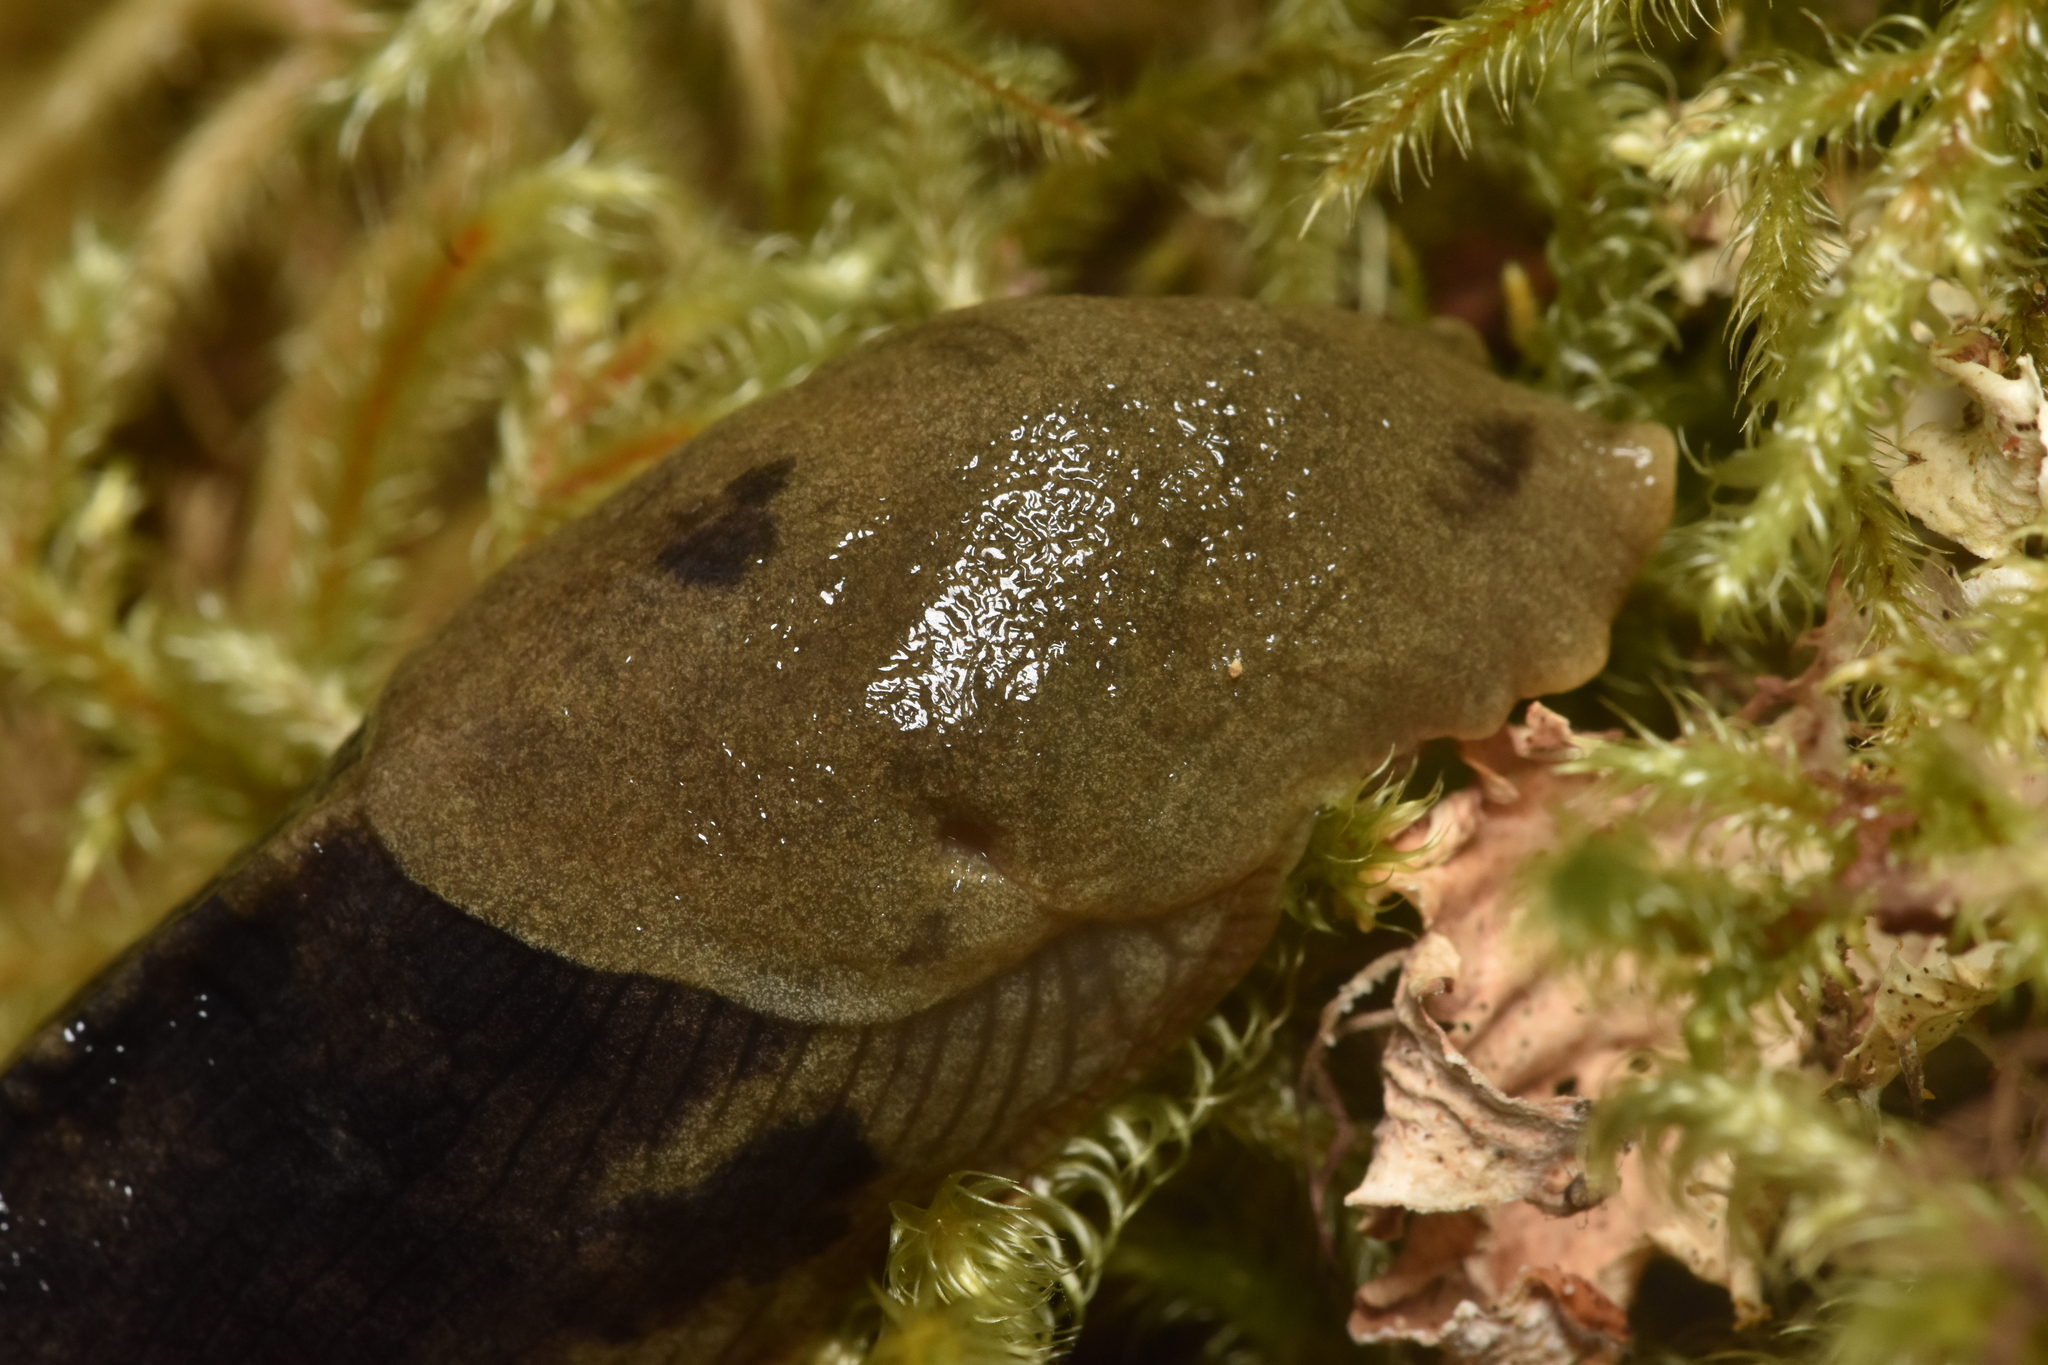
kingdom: Animalia
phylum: Mollusca
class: Gastropoda
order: Stylommatophora
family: Ariolimacidae
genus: Ariolimax
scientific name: Ariolimax columbianus
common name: Pacific banana slug
